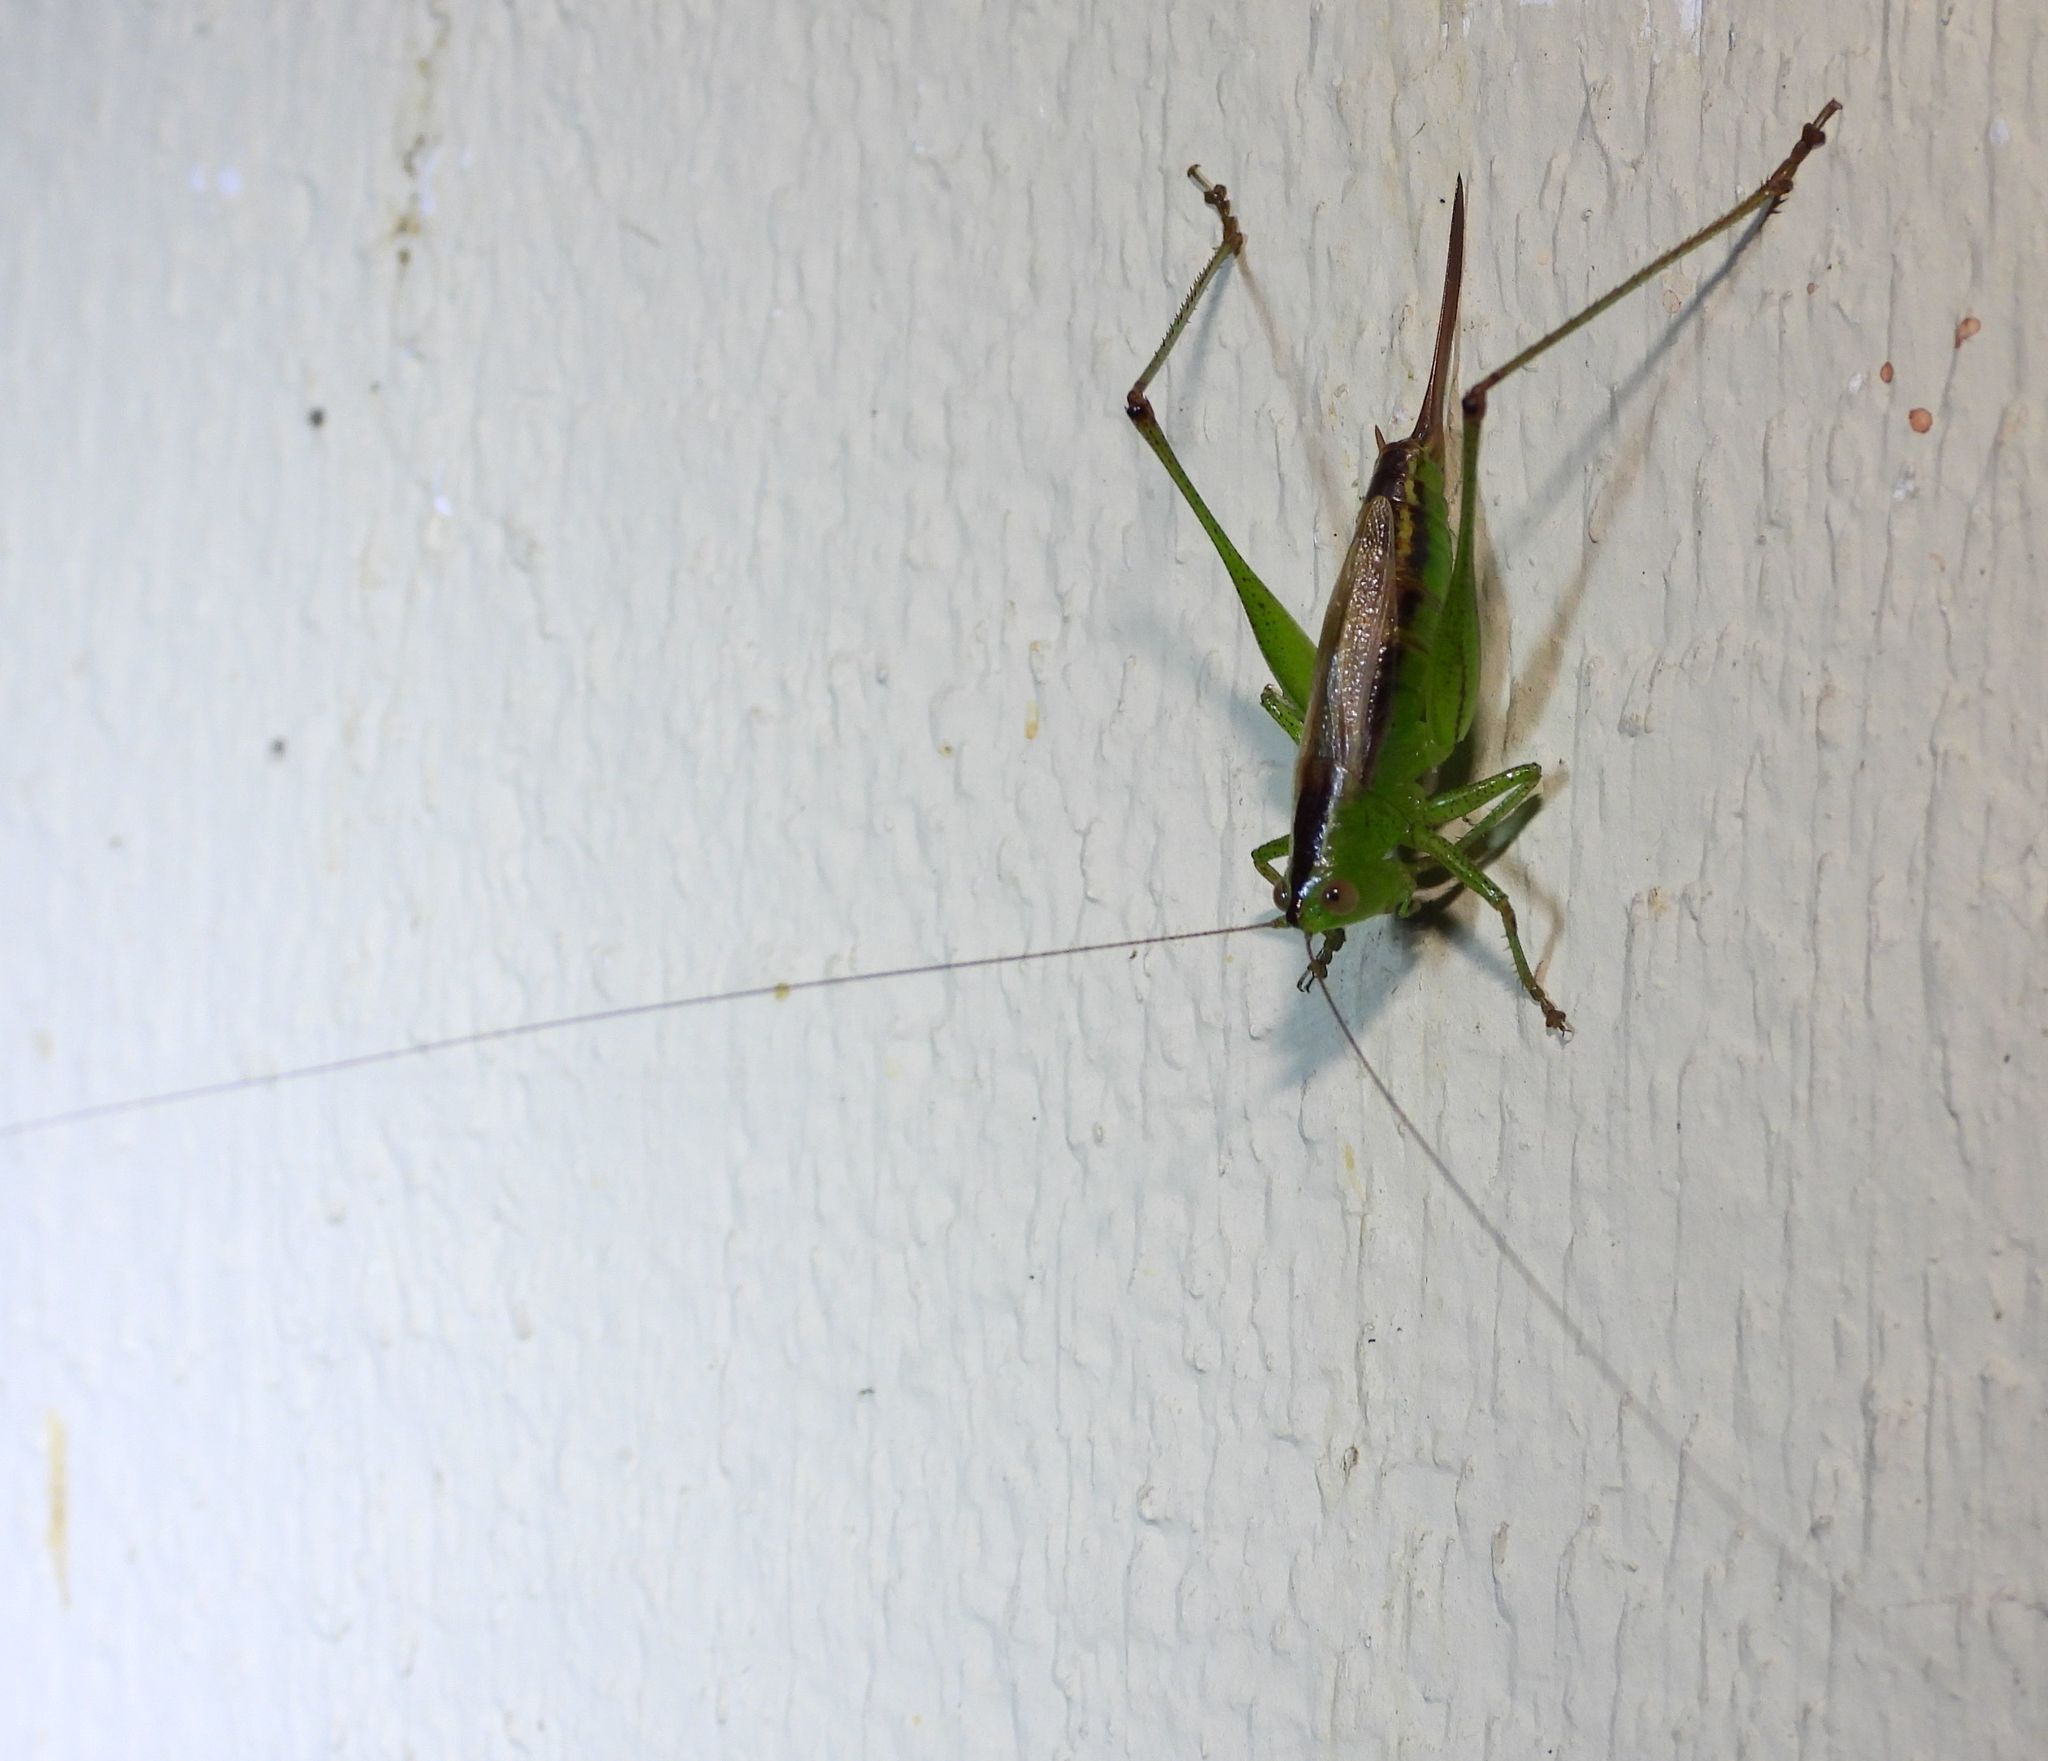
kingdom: Animalia
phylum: Arthropoda
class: Insecta
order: Orthoptera
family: Tettigoniidae
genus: Conocephalus
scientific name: Conocephalus brevipennis
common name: Short-winged meadow katydid
